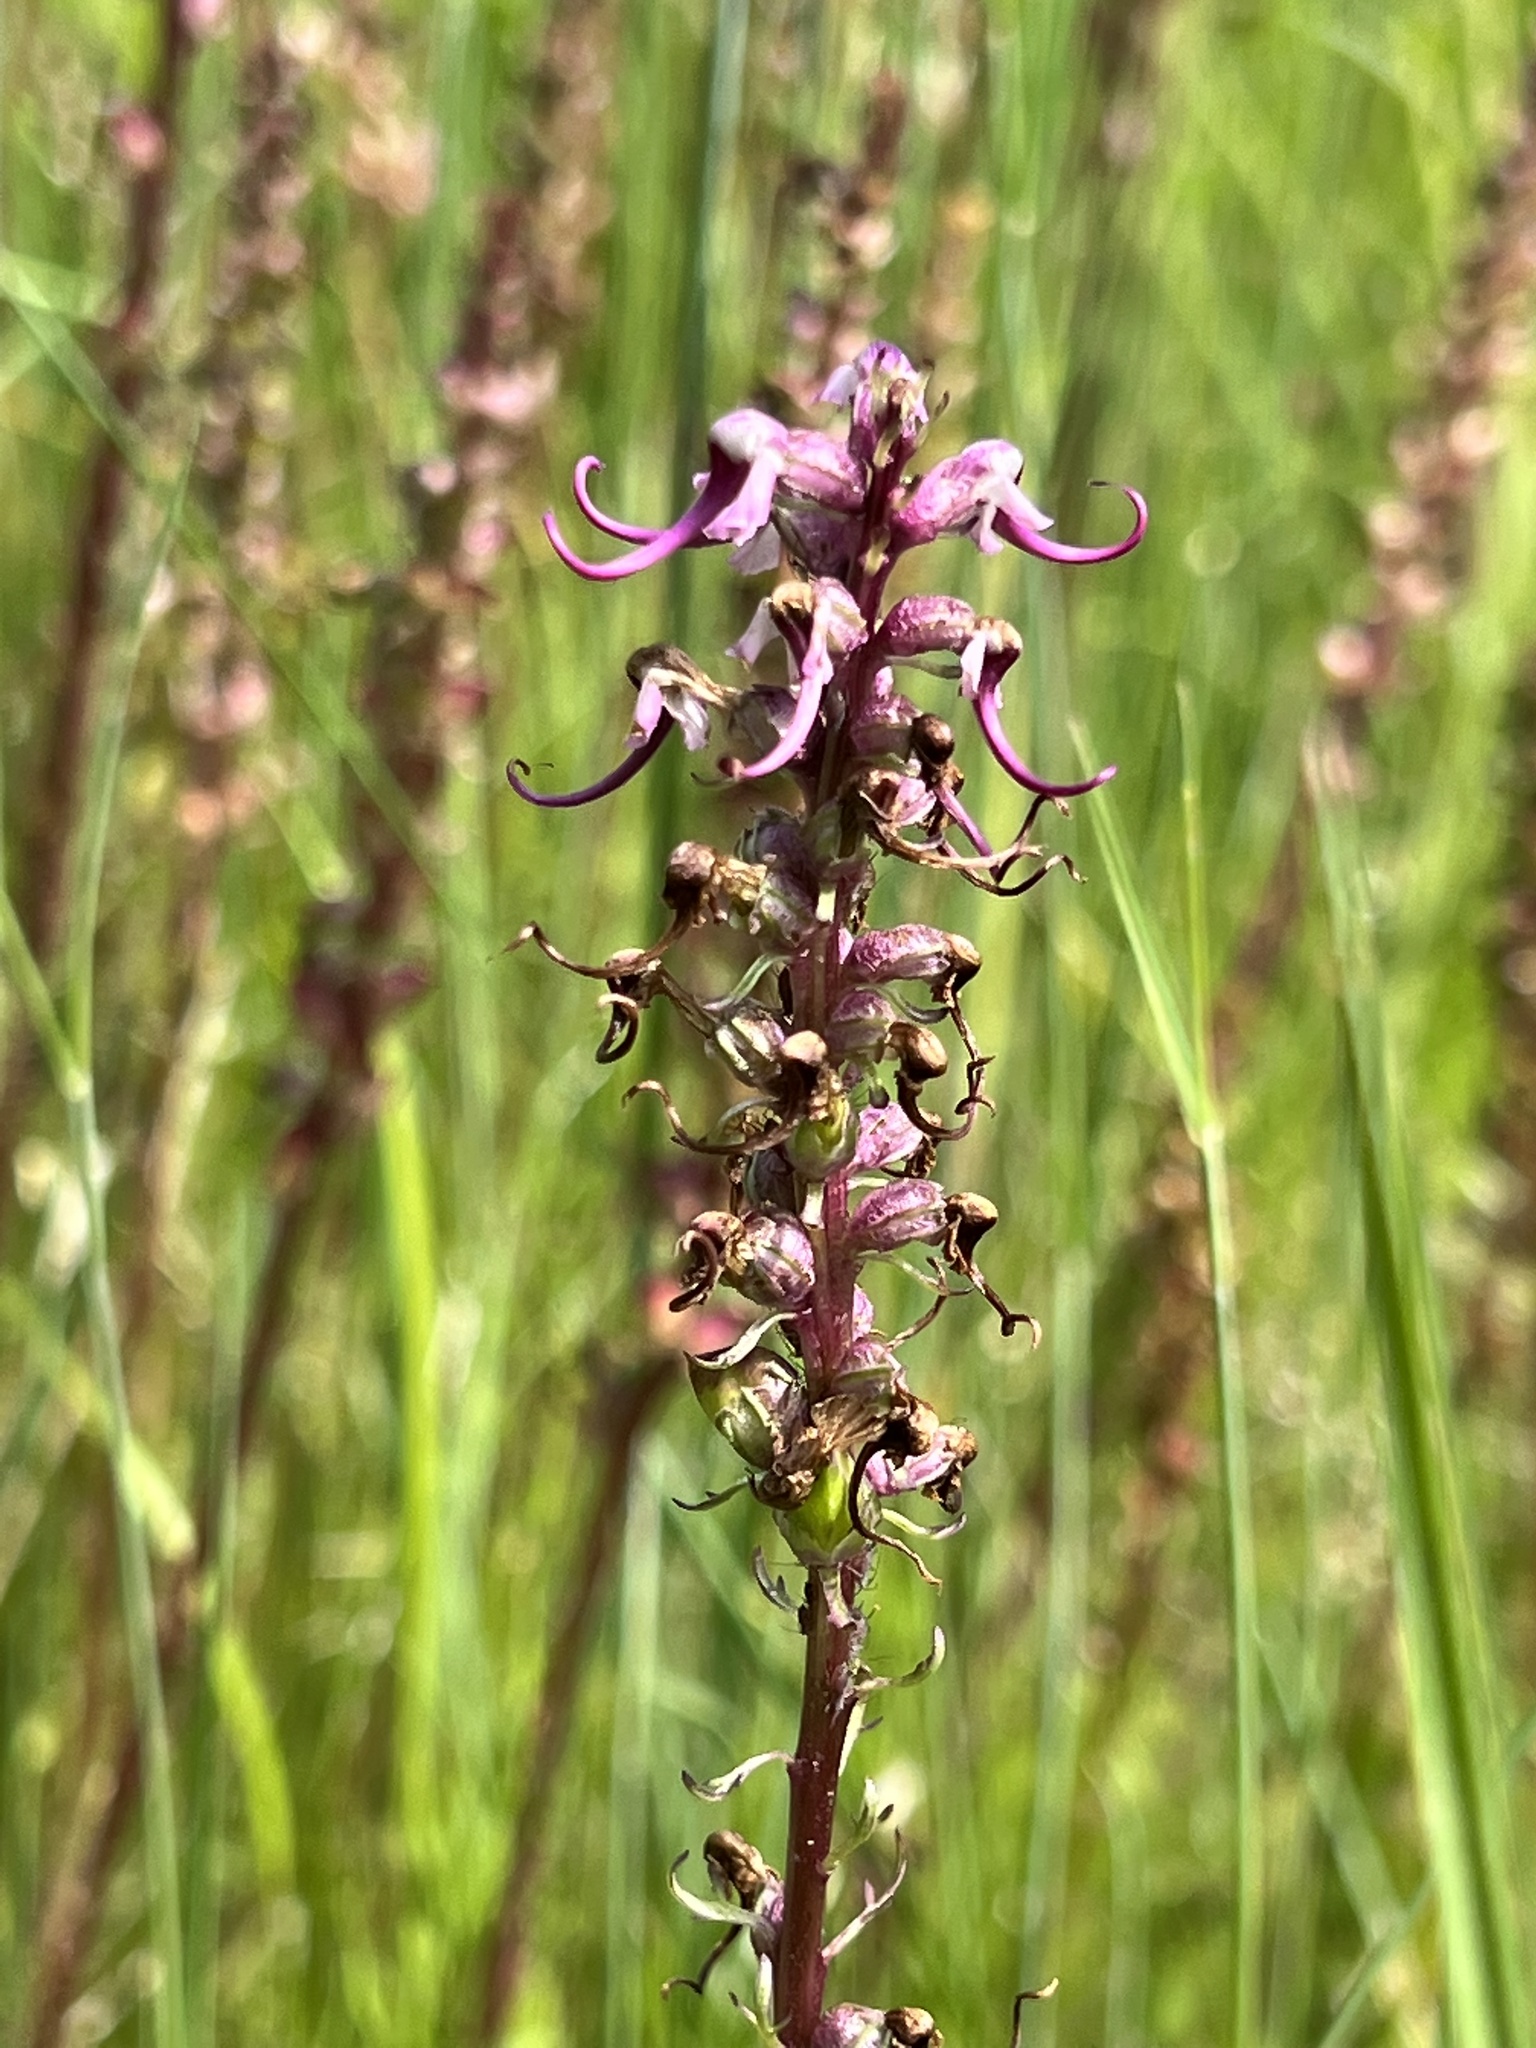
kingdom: Plantae
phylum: Tracheophyta
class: Magnoliopsida
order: Lamiales
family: Orobanchaceae
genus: Pedicularis
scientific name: Pedicularis groenlandica
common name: Elephant's-head
